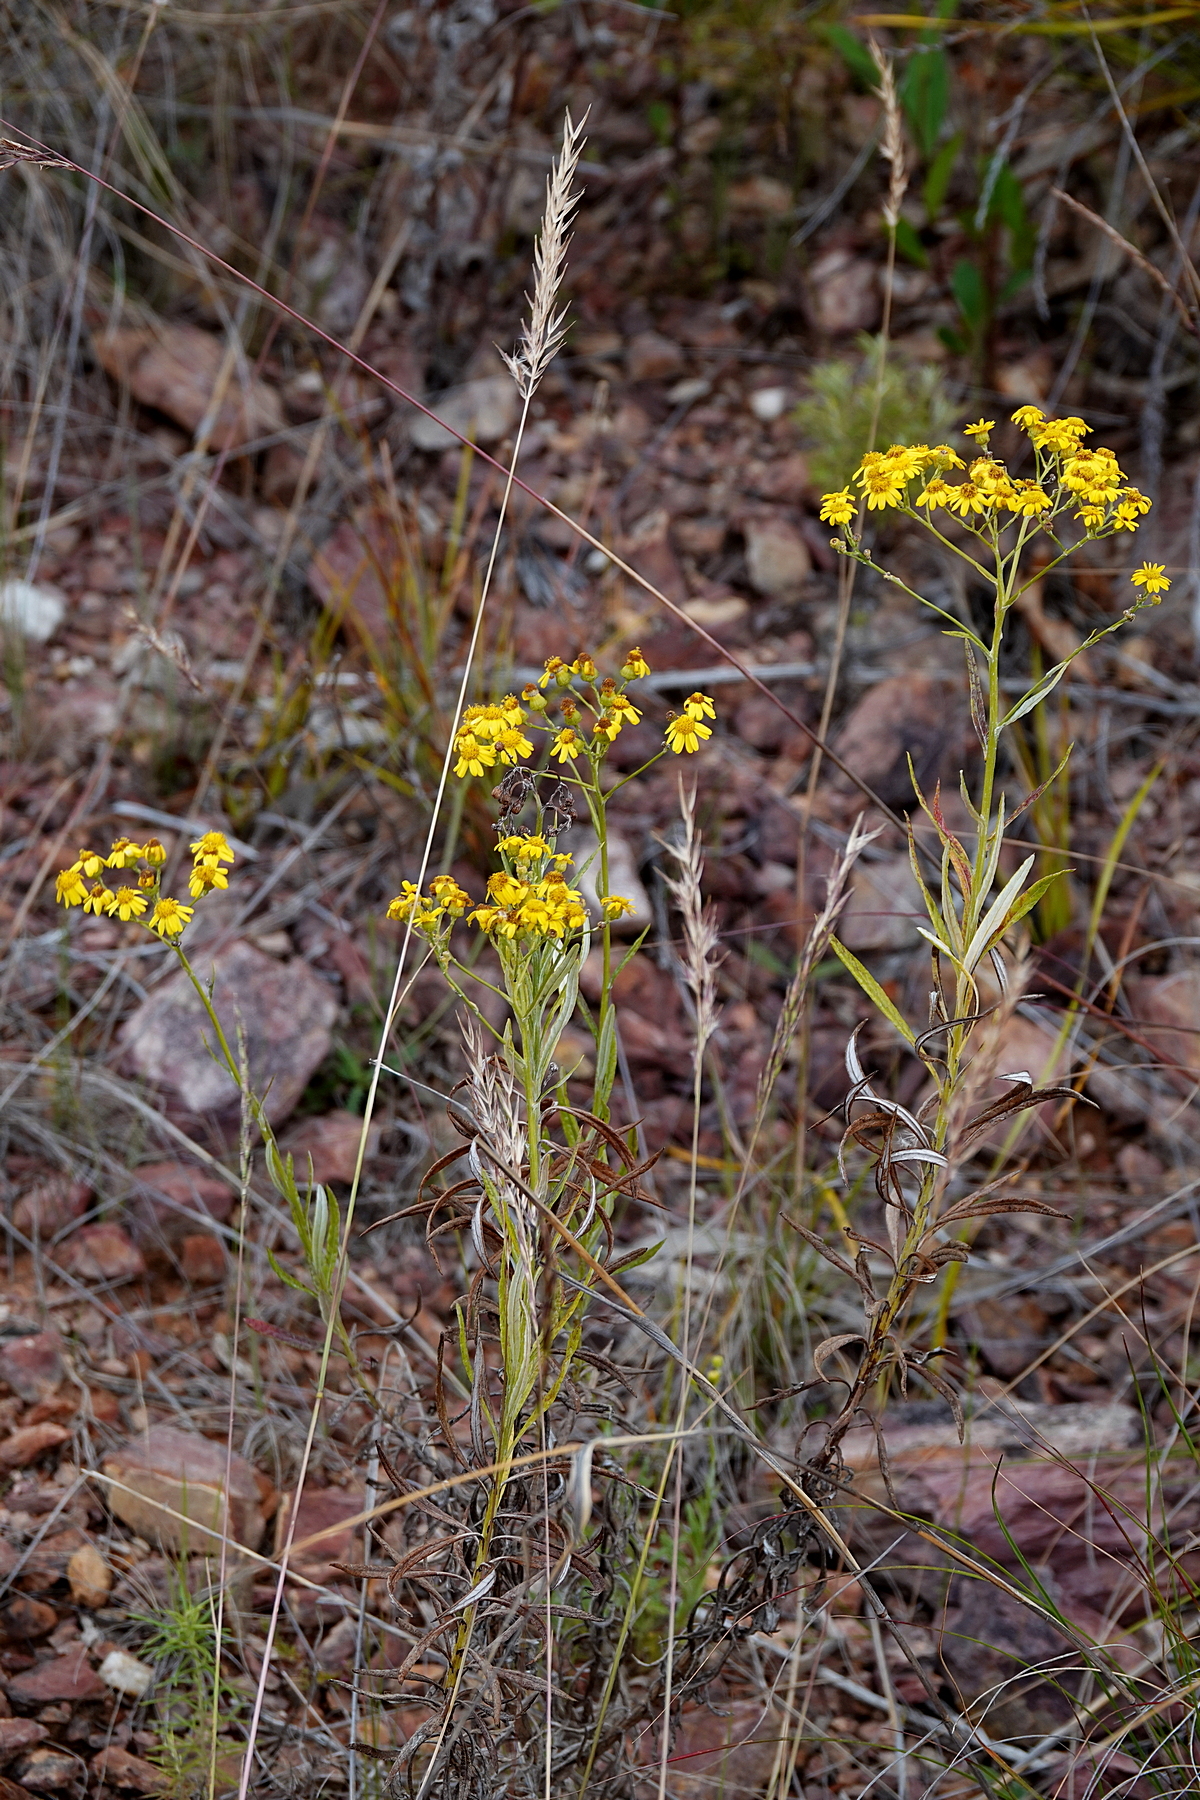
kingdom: Plantae
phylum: Tracheophyta
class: Magnoliopsida
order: Asterales
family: Asteraceae
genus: Senecio
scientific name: Senecio pterophorus
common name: Shoddy ragwort
